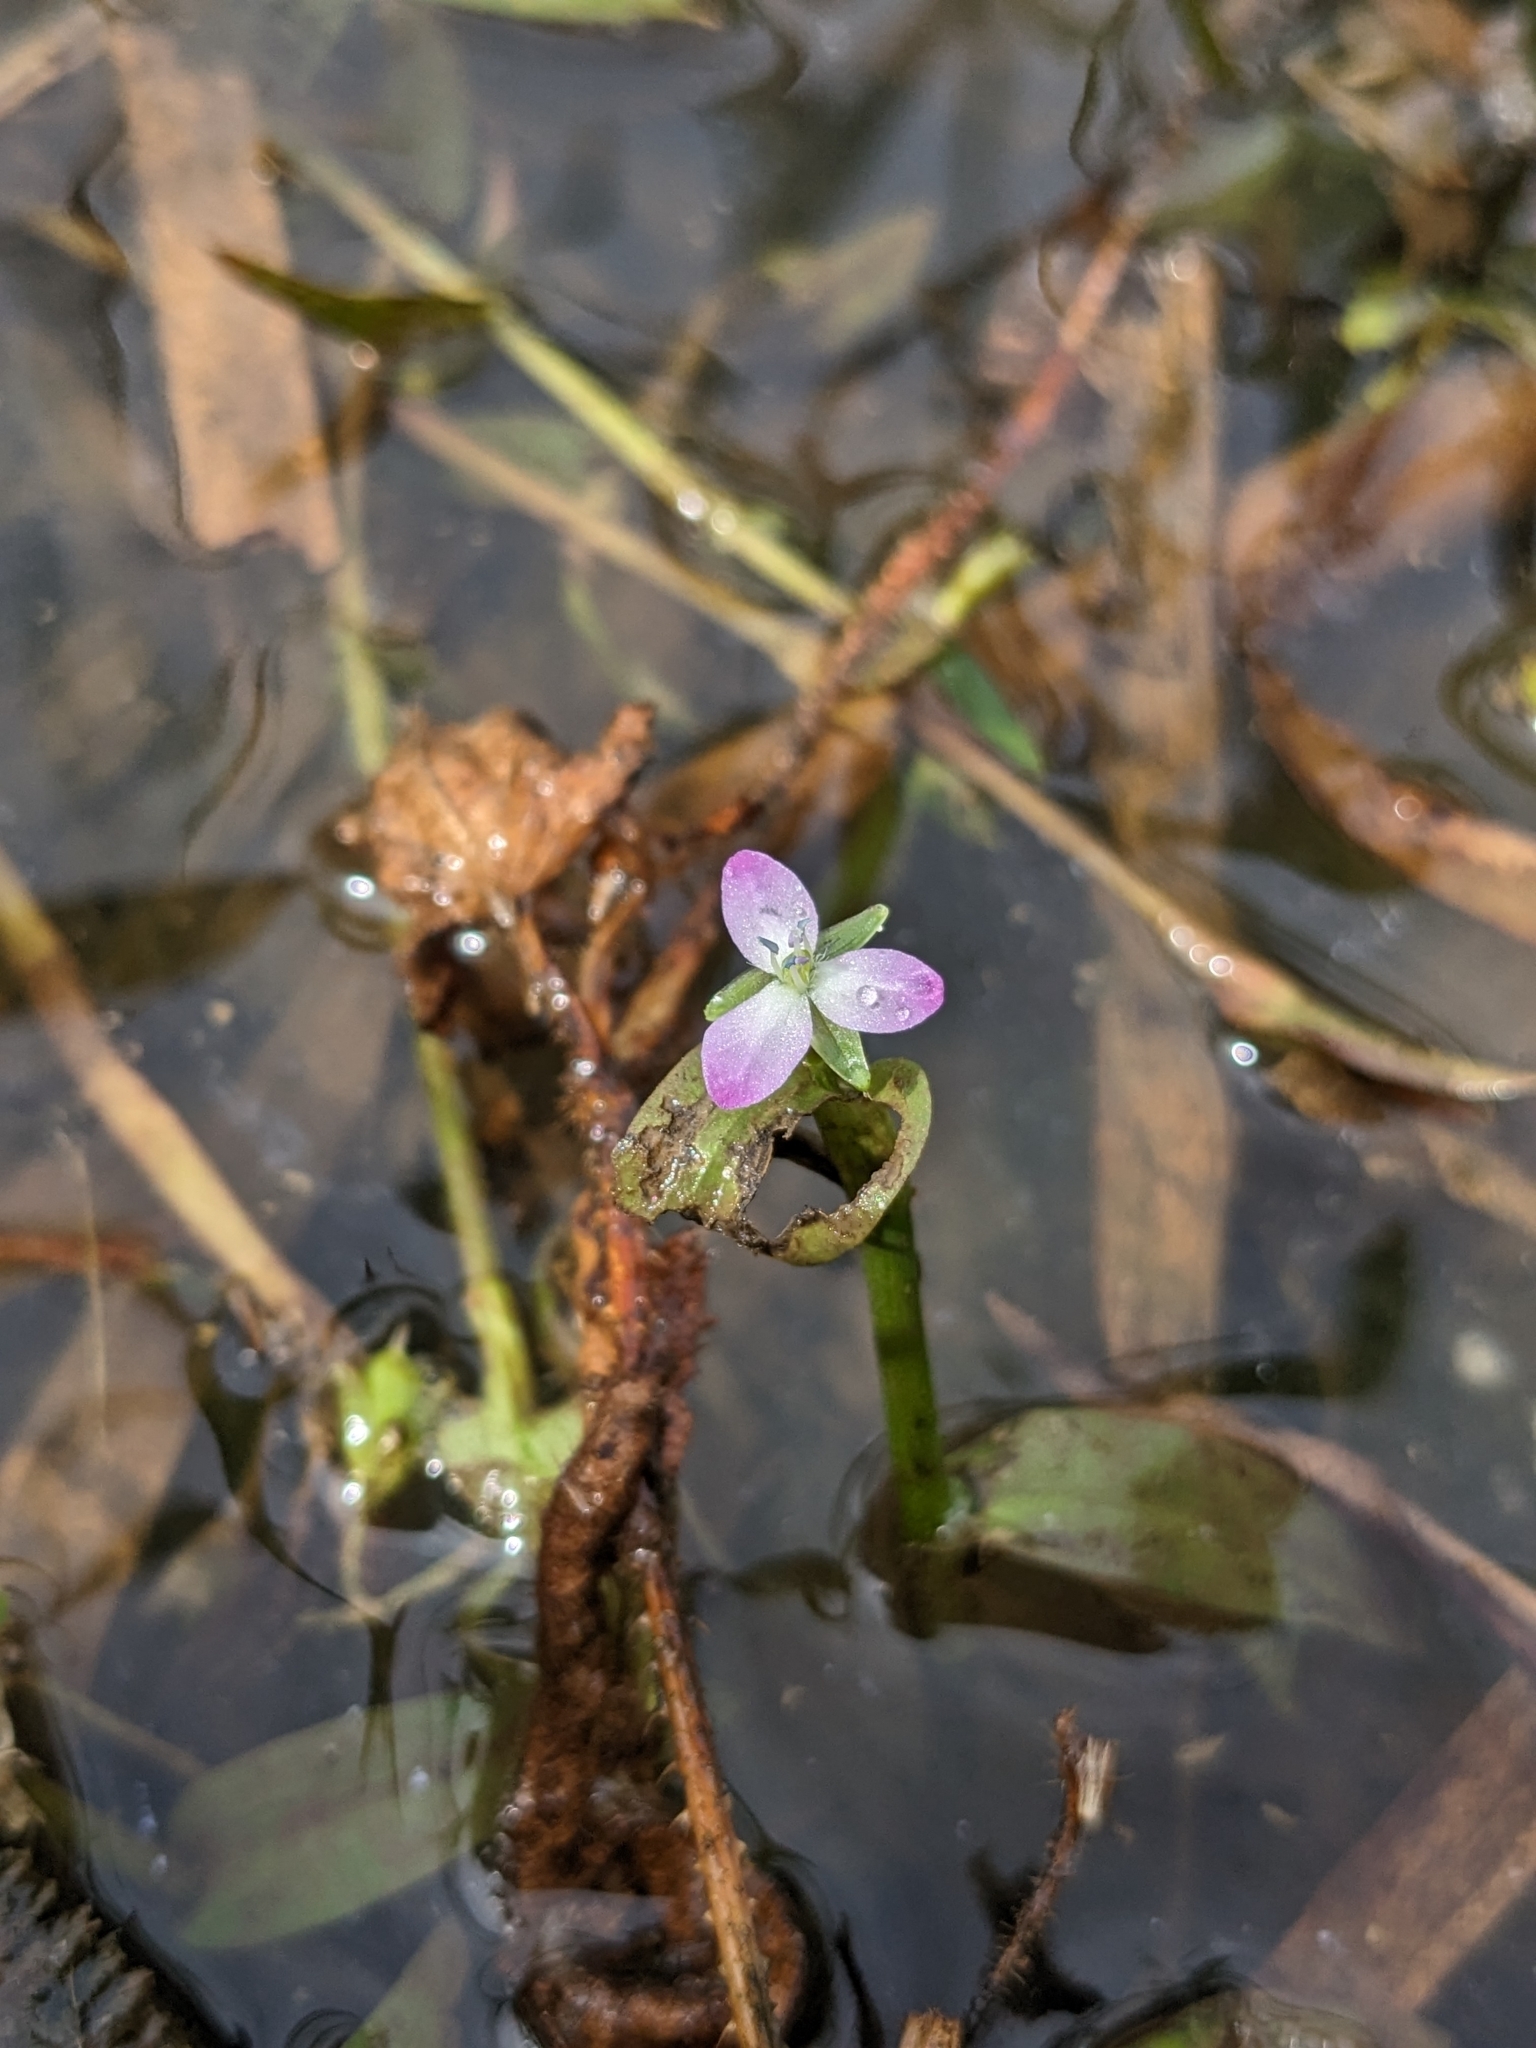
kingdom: Plantae
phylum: Tracheophyta
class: Liliopsida
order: Commelinales
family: Commelinaceae
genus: Murdannia
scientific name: Murdannia keisak
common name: Wartremoving herb
